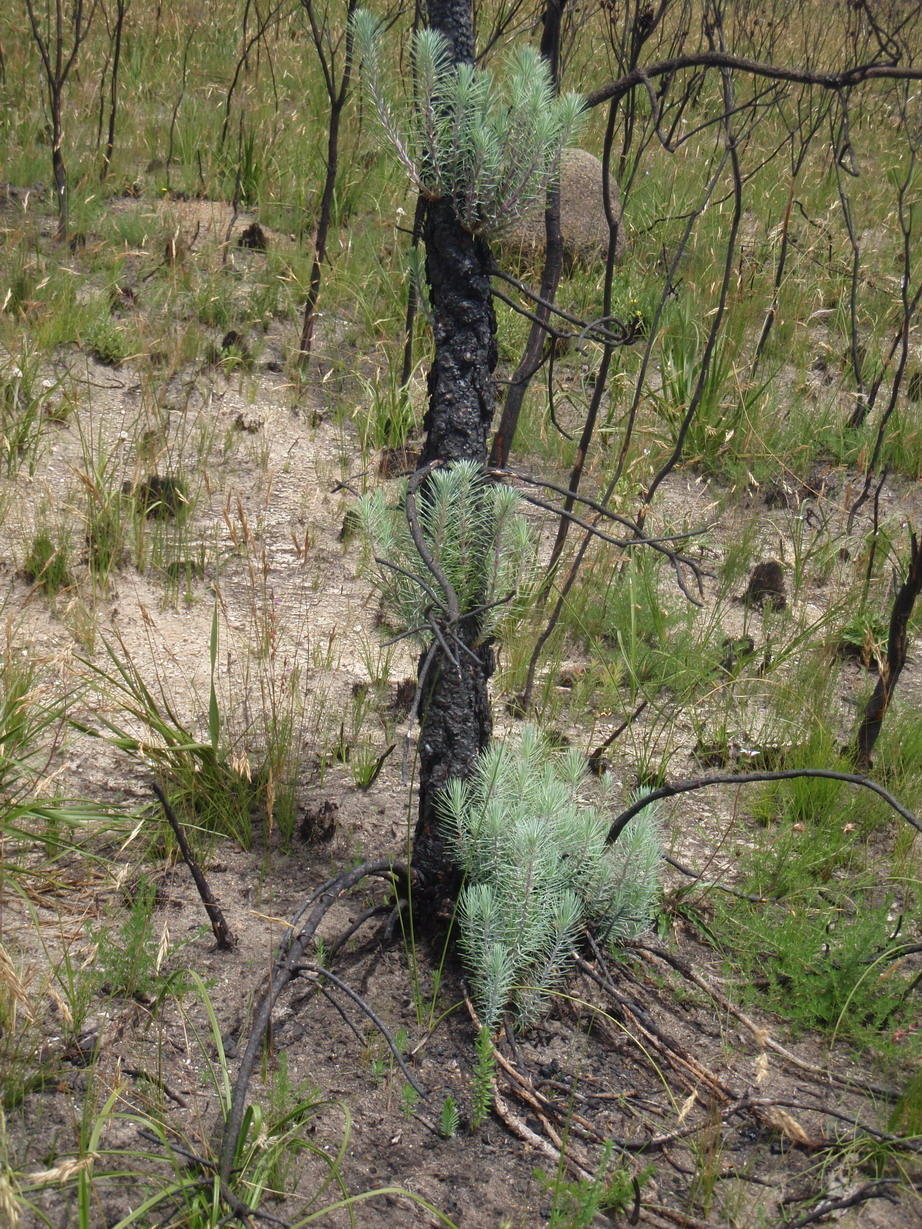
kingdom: Plantae
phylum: Tracheophyta
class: Pinopsida
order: Pinales
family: Pinaceae
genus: Pinus
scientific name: Pinus canariensis
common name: Canary islands pine
